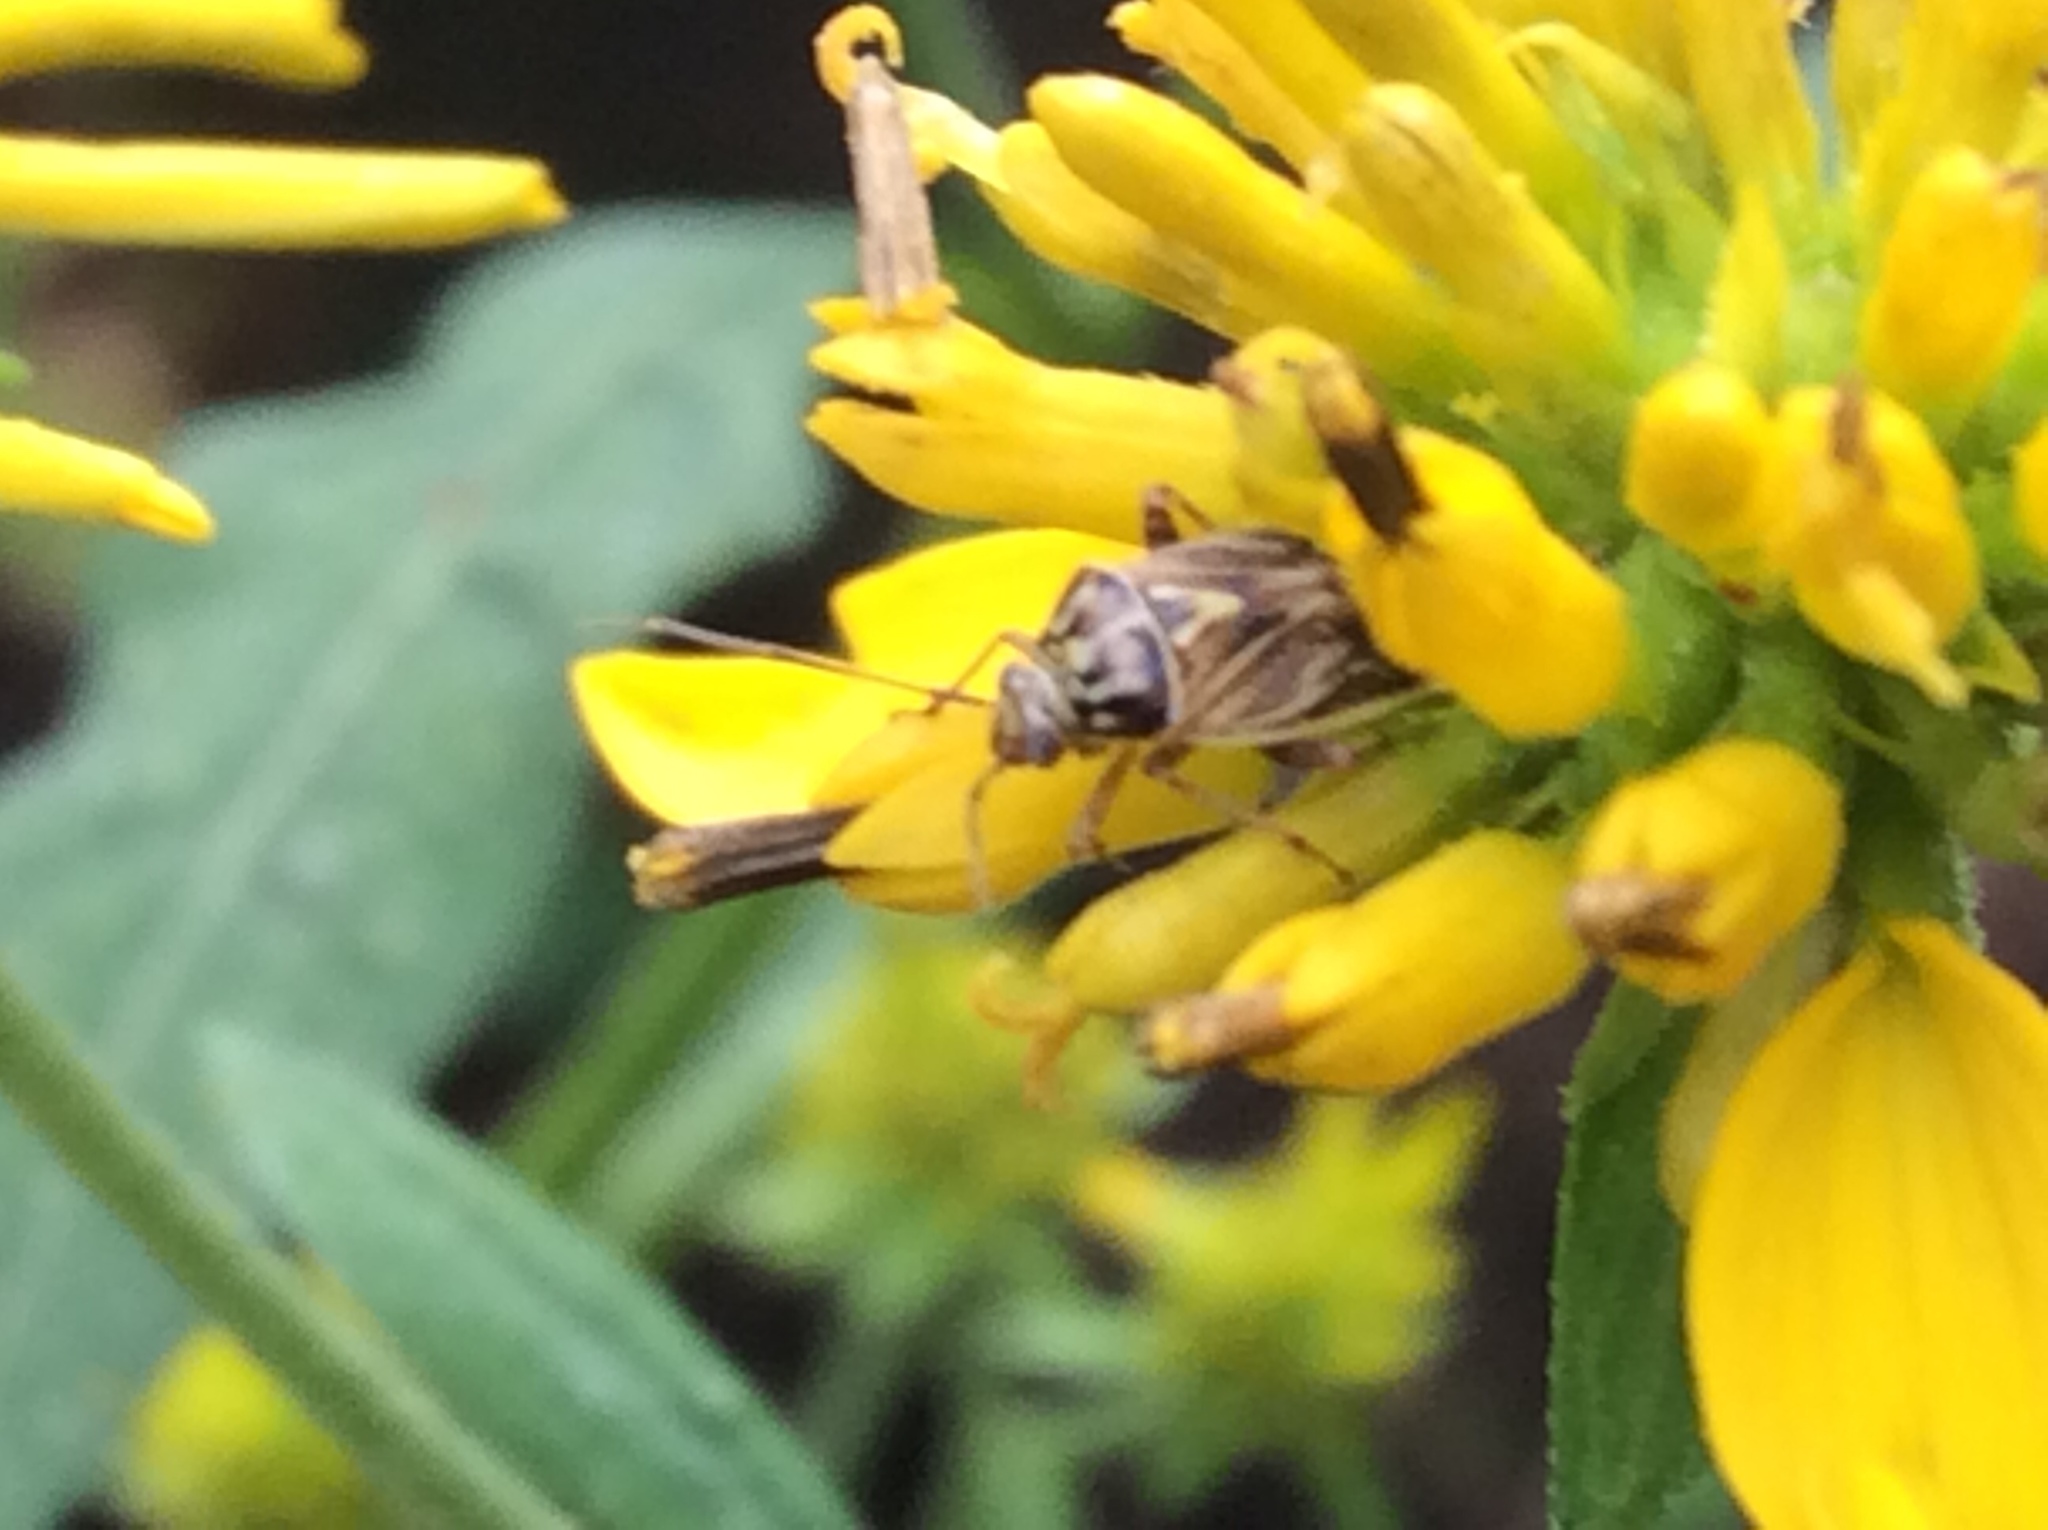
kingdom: Animalia
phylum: Arthropoda
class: Insecta
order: Hemiptera
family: Miridae
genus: Lygus
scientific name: Lygus lineolaris
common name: North american tarnished plant bug
